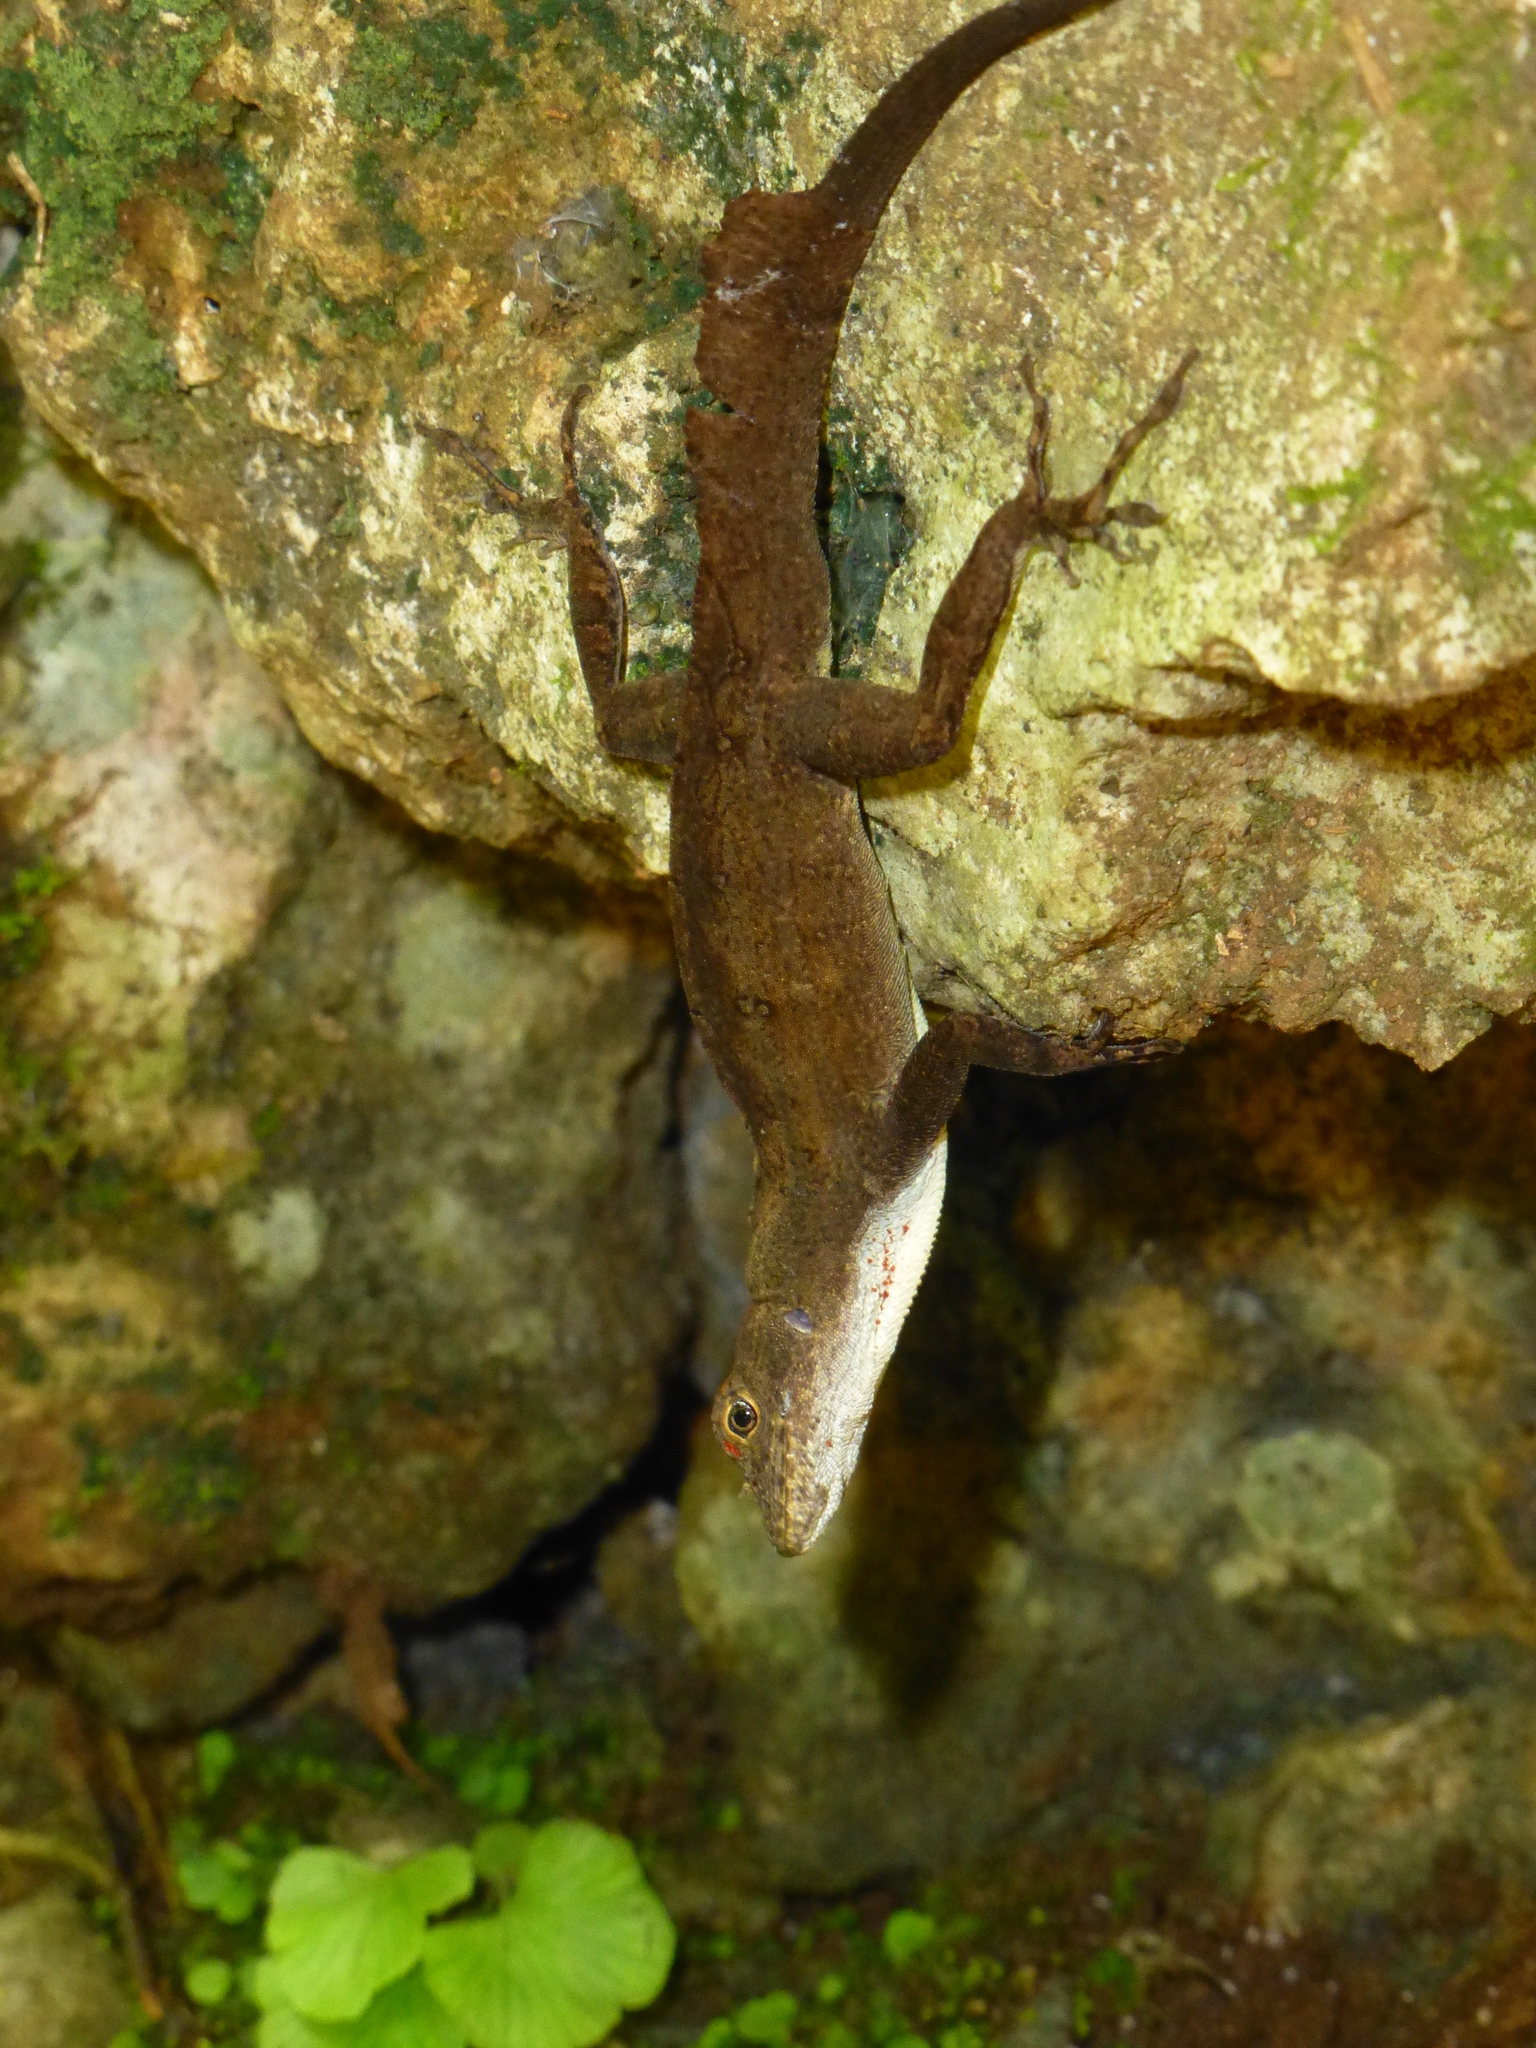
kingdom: Animalia
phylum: Chordata
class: Squamata
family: Dactyloidae
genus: Anolis
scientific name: Anolis homolechis
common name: Habana anole
